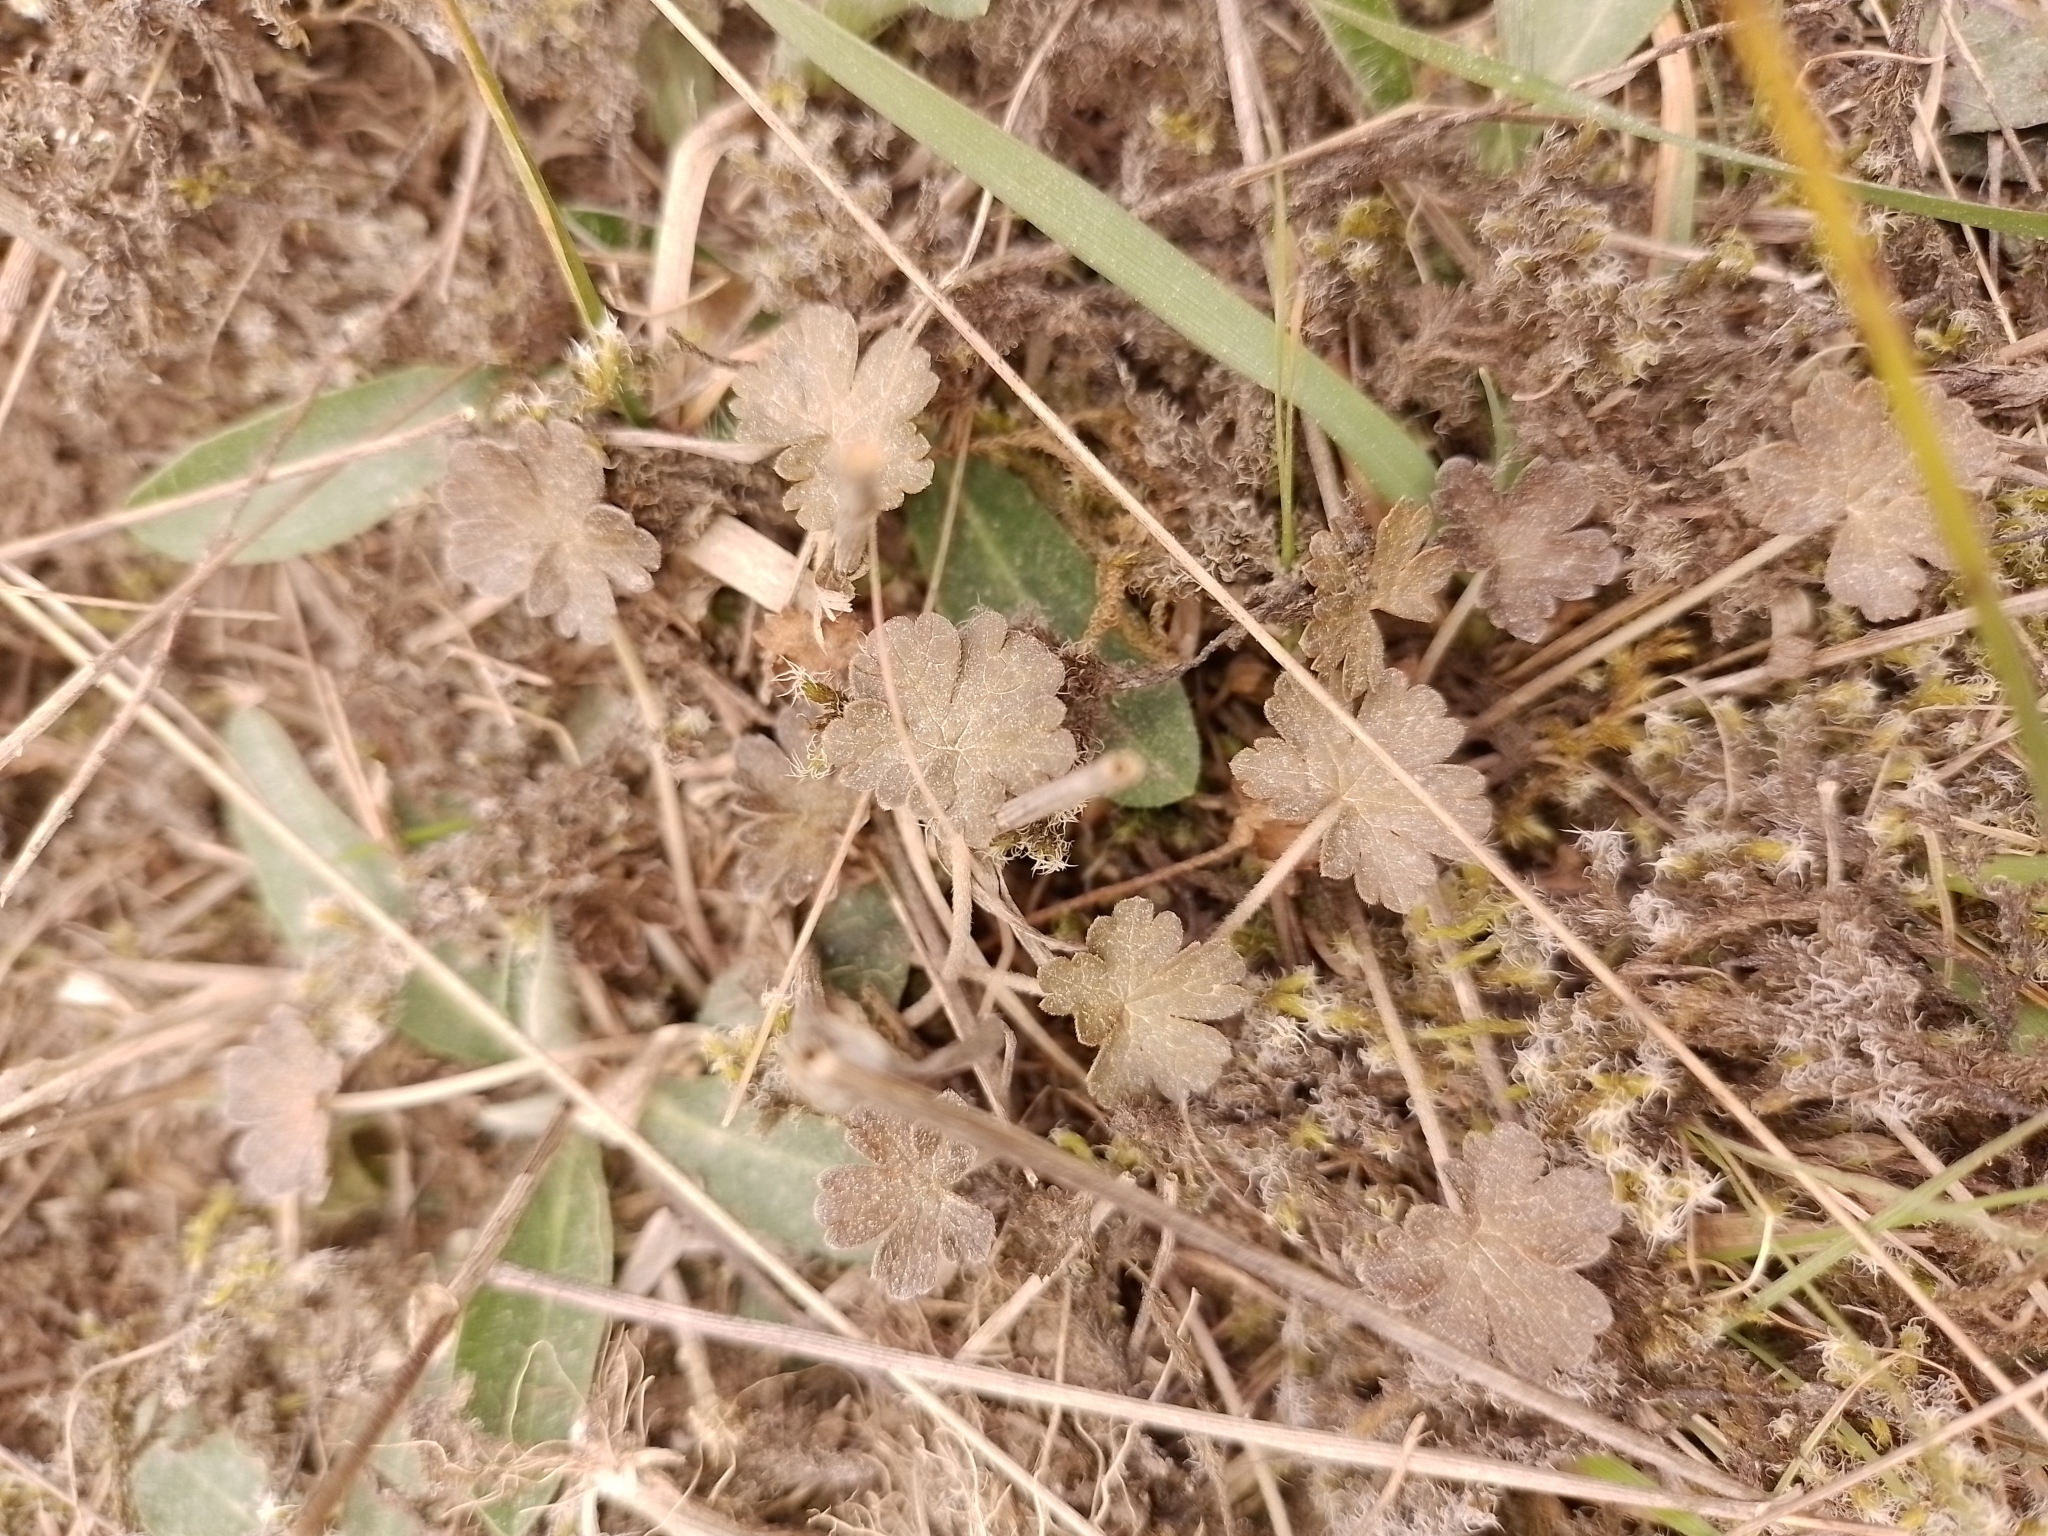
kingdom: Plantae
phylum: Tracheophyta
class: Magnoliopsida
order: Geraniales
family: Geraniaceae
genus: Geranium
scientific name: Geranium brevicaule
